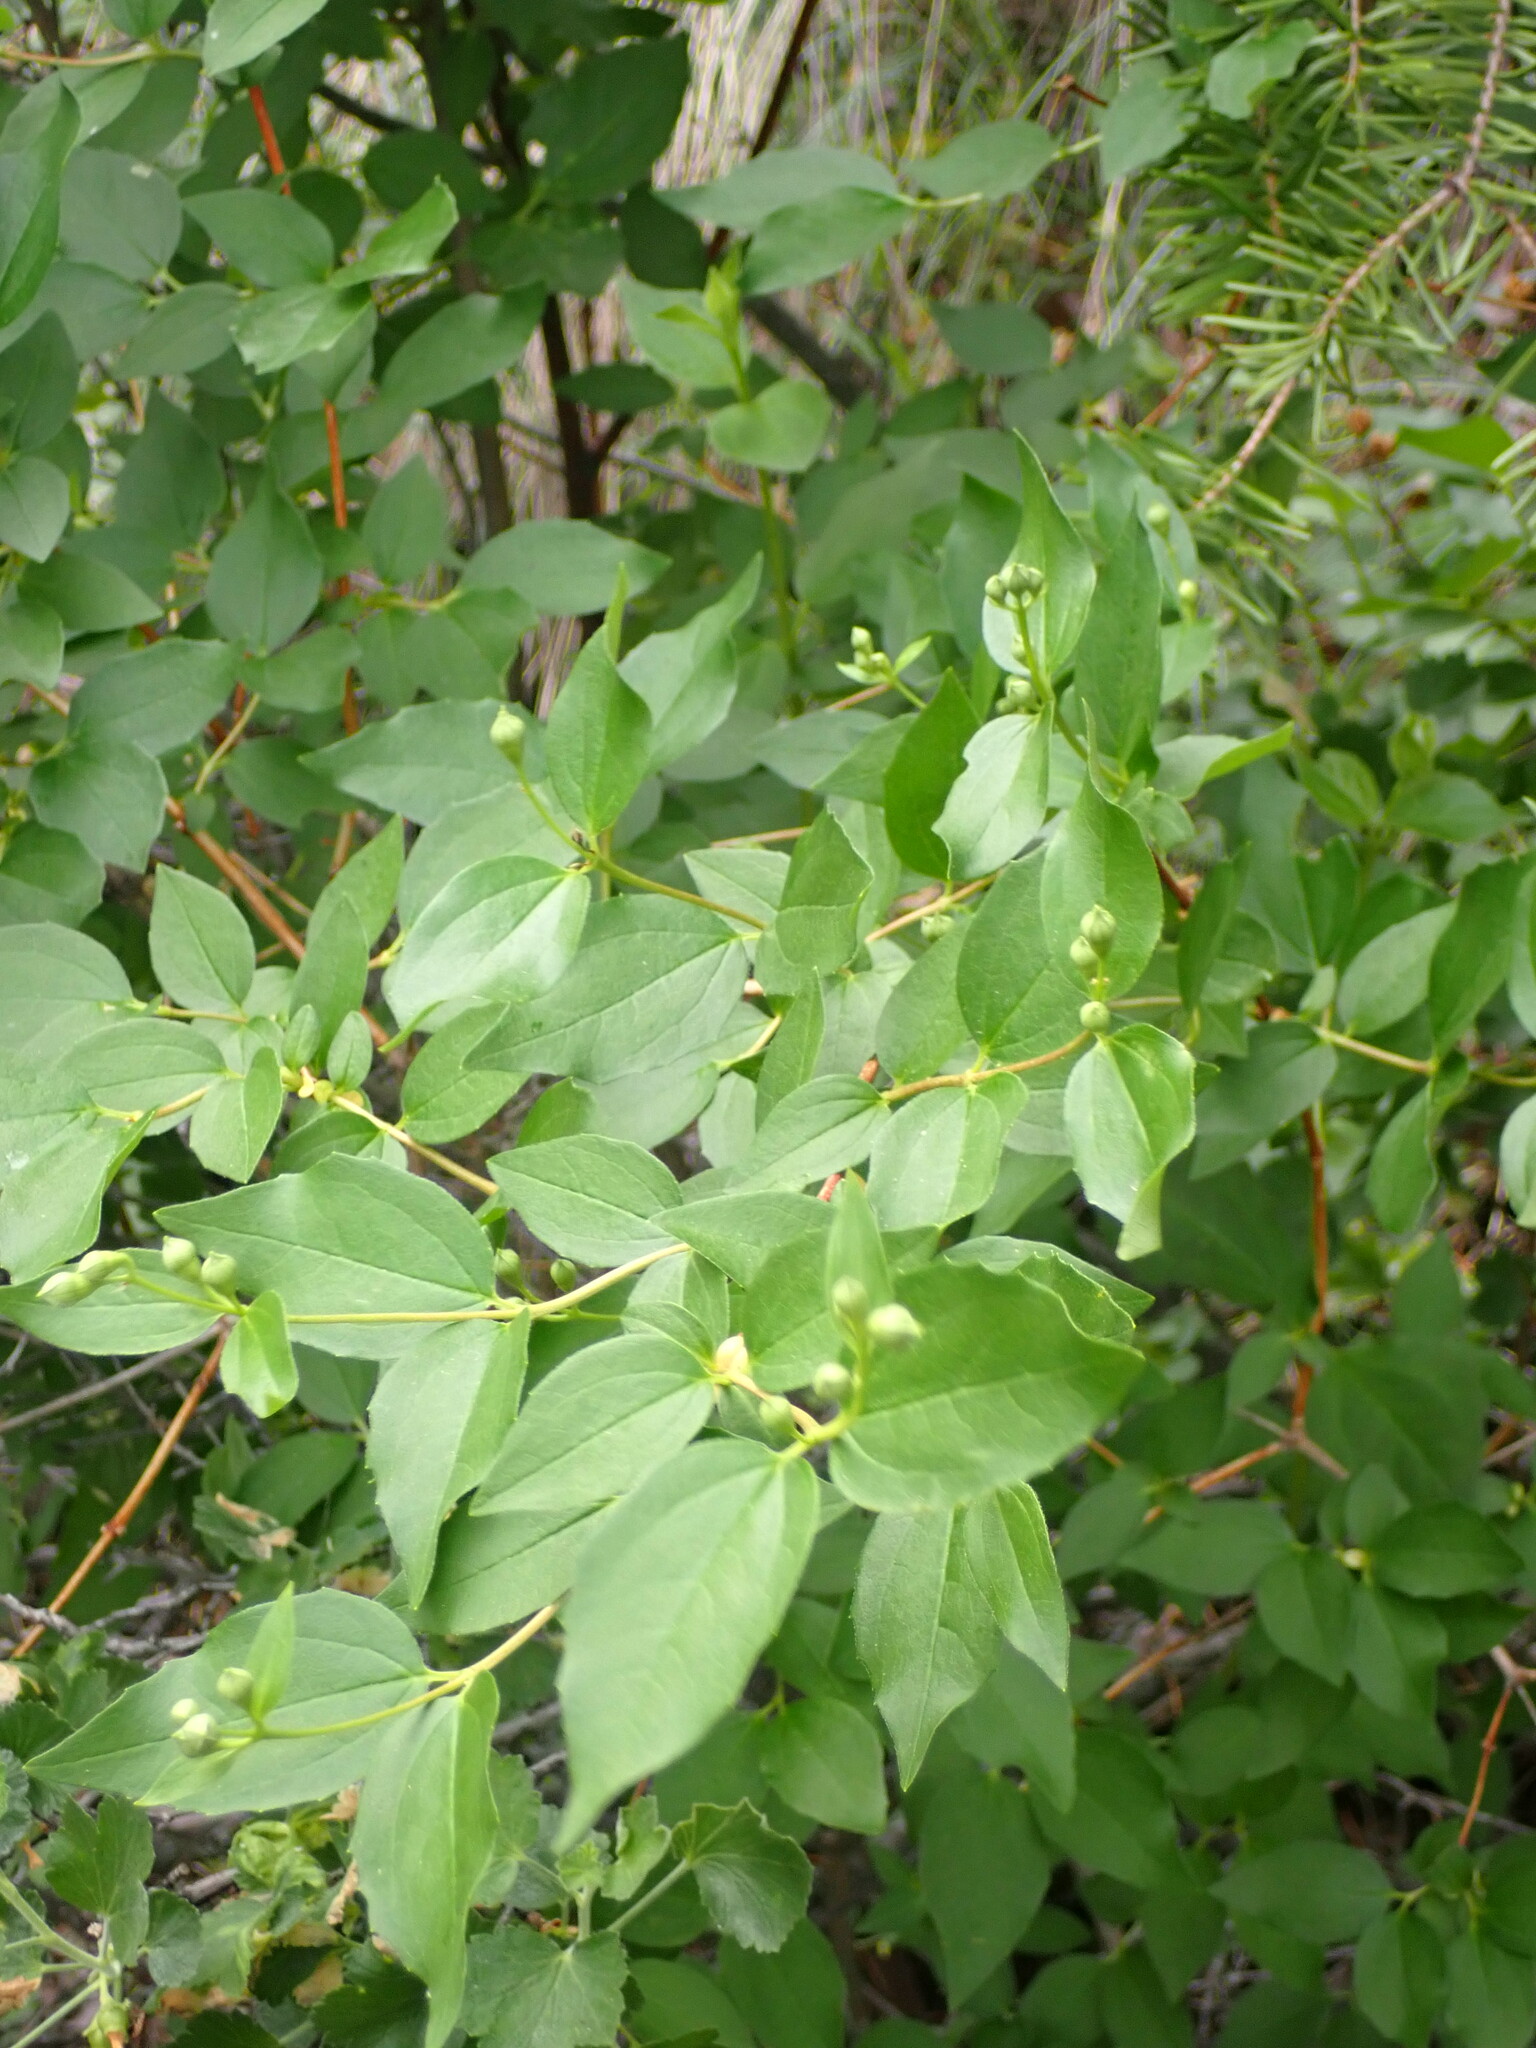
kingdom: Plantae
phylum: Tracheophyta
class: Magnoliopsida
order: Cornales
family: Hydrangeaceae
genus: Philadelphus
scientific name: Philadelphus lewisii
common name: Lewis's mock orange
